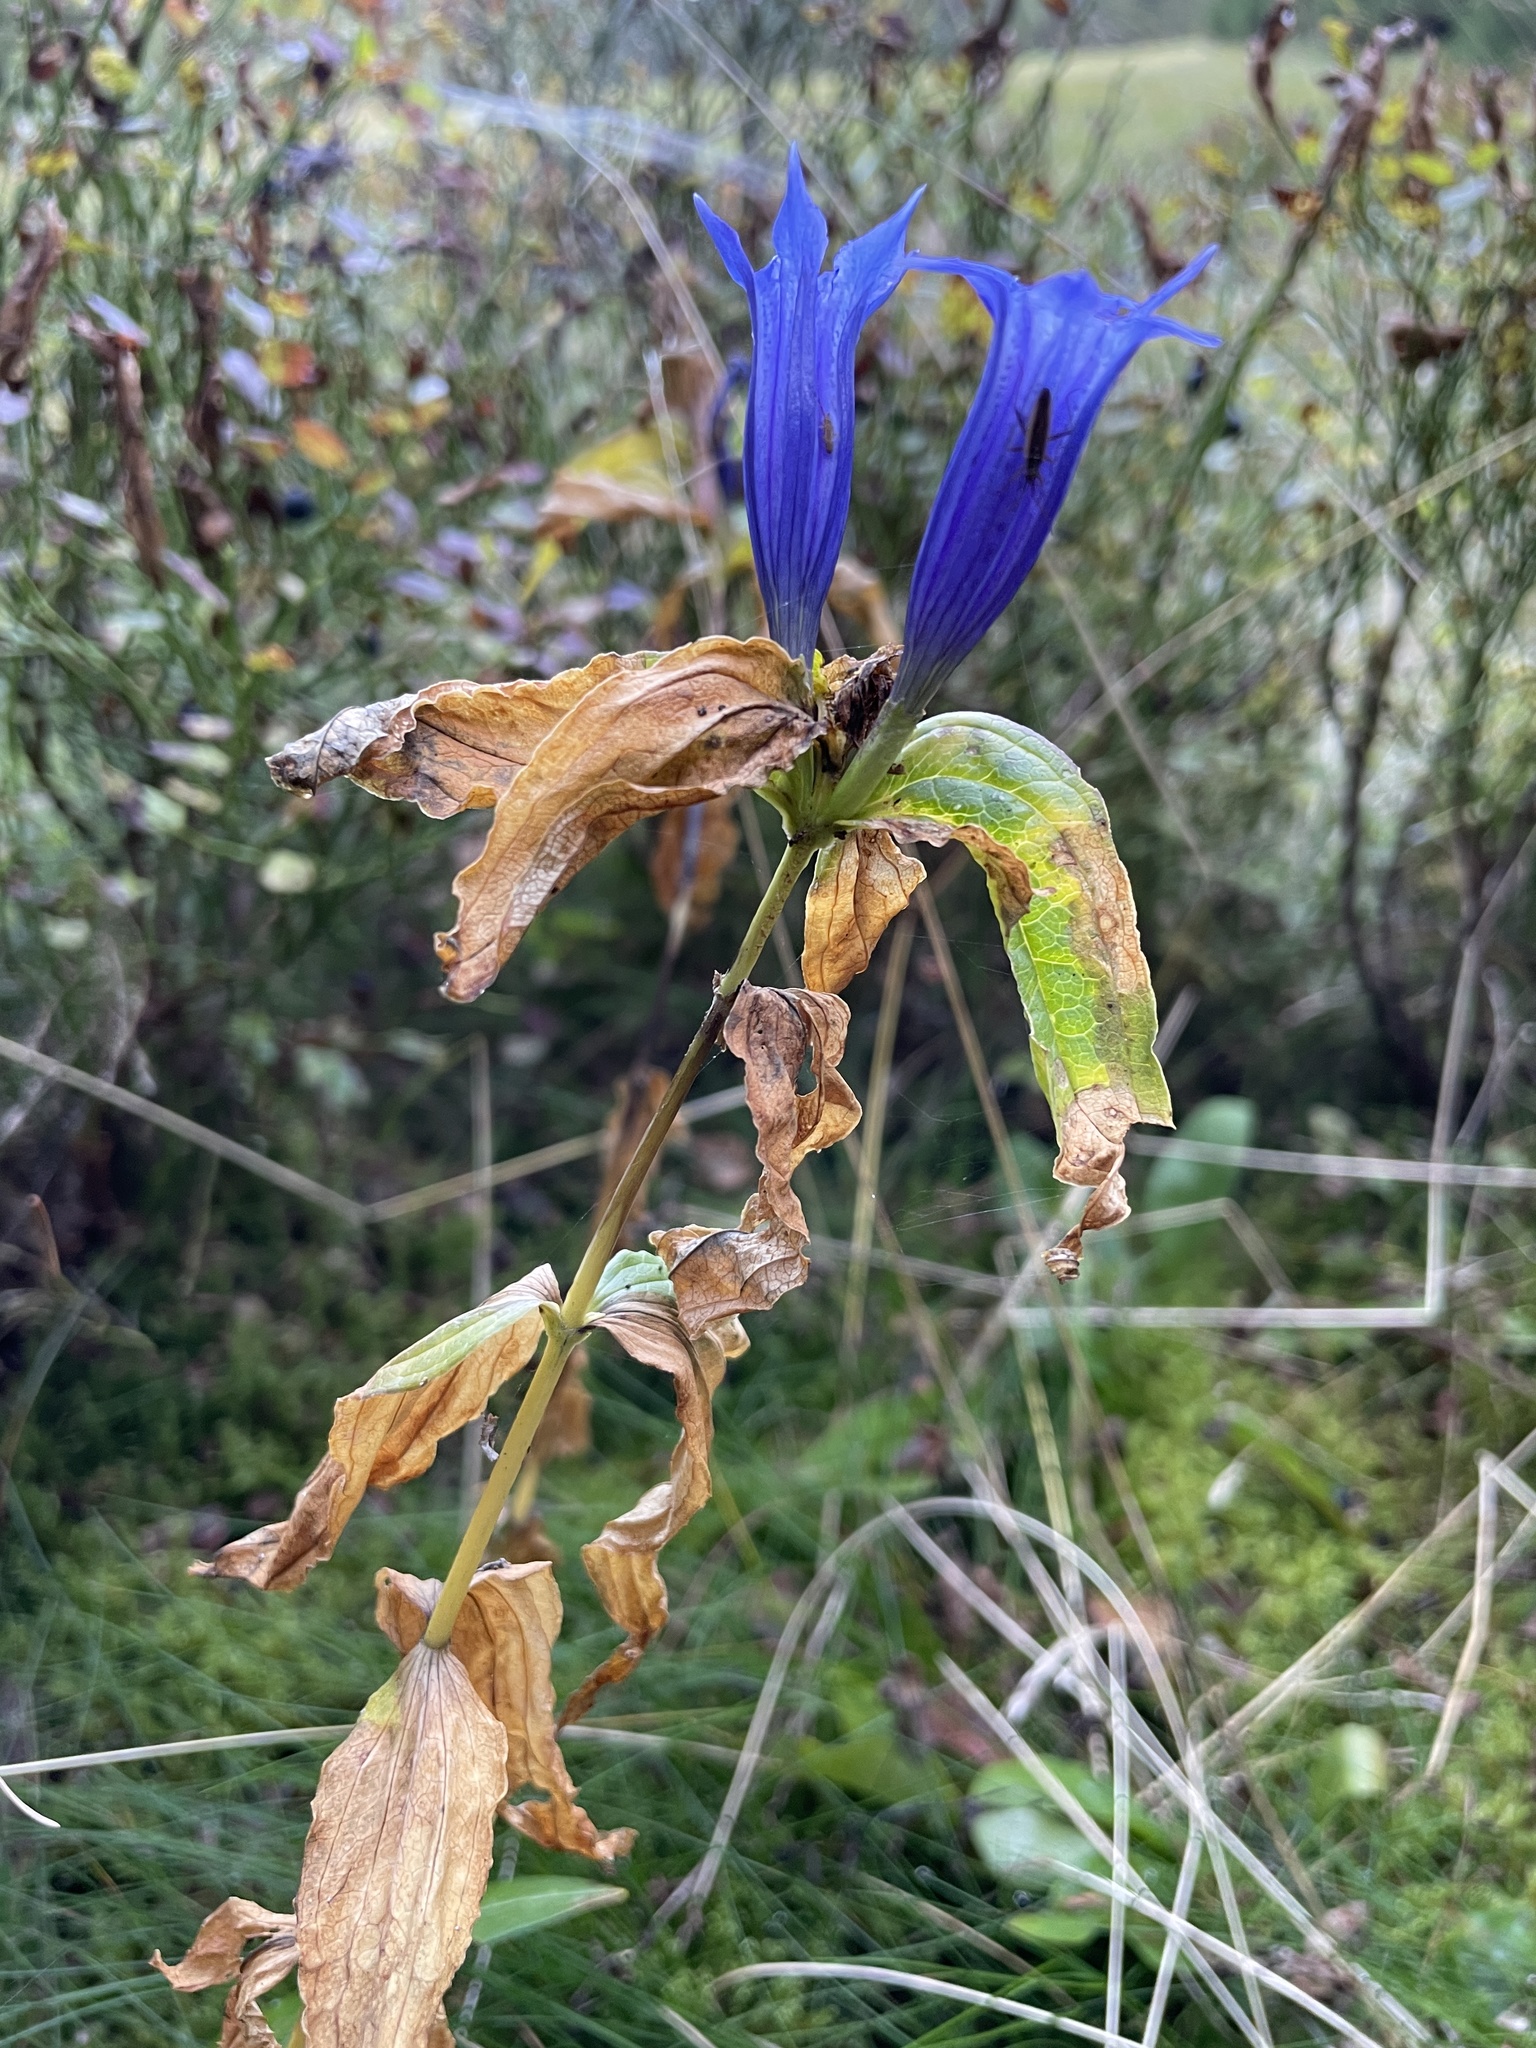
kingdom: Plantae
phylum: Tracheophyta
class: Magnoliopsida
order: Gentianales
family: Gentianaceae
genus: Gentiana
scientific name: Gentiana asclepiadea
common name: Willow gentian
